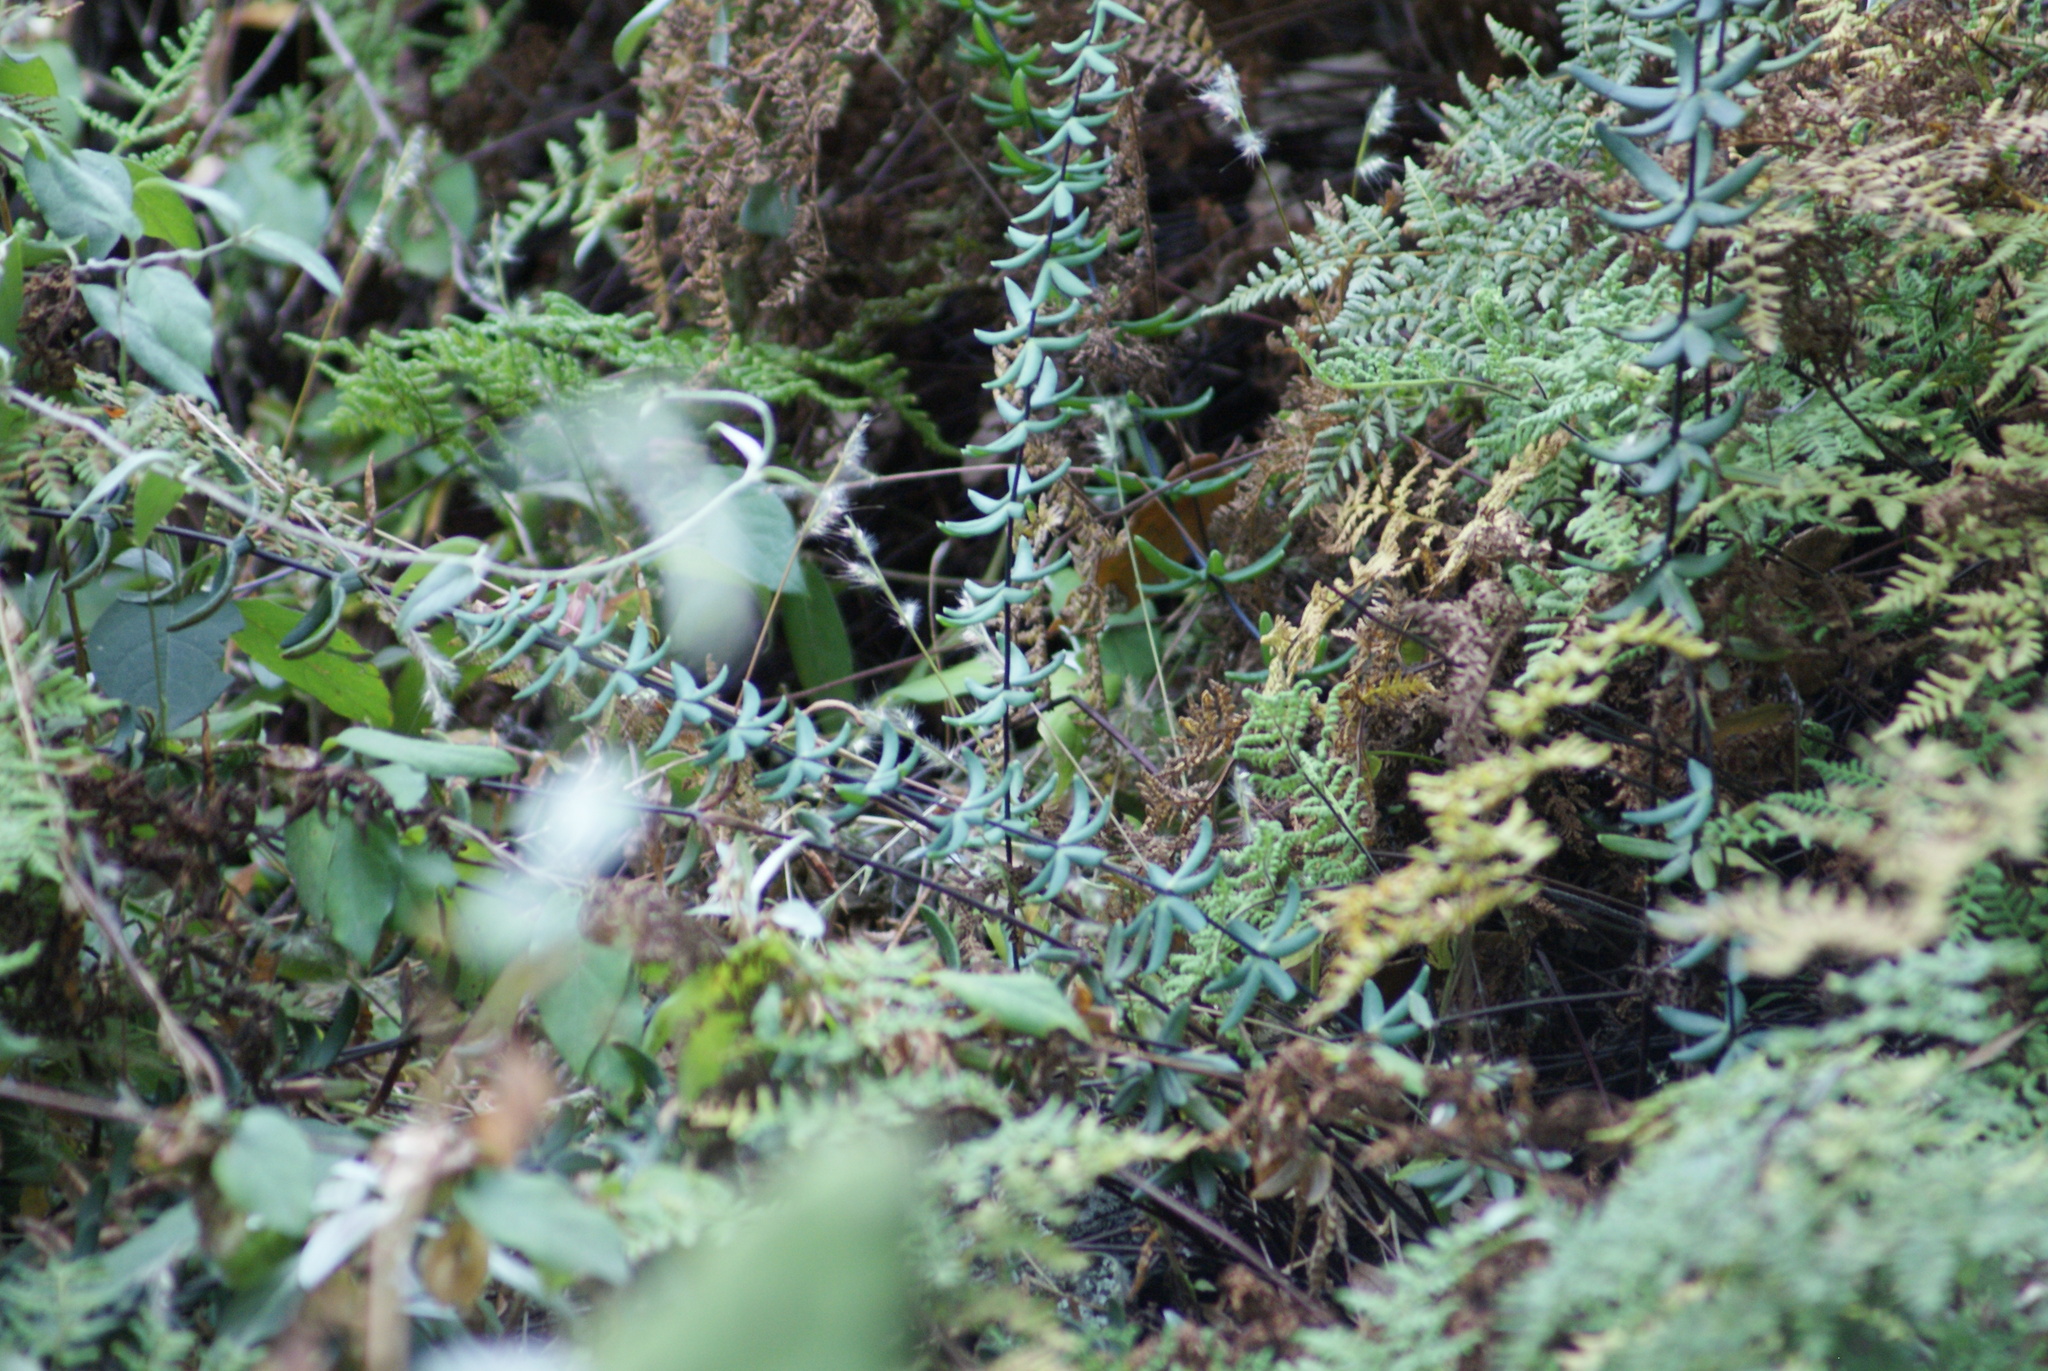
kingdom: Plantae
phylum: Tracheophyta
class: Polypodiopsida
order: Polypodiales
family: Pteridaceae
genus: Pellaea
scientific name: Pellaea ternifolia
